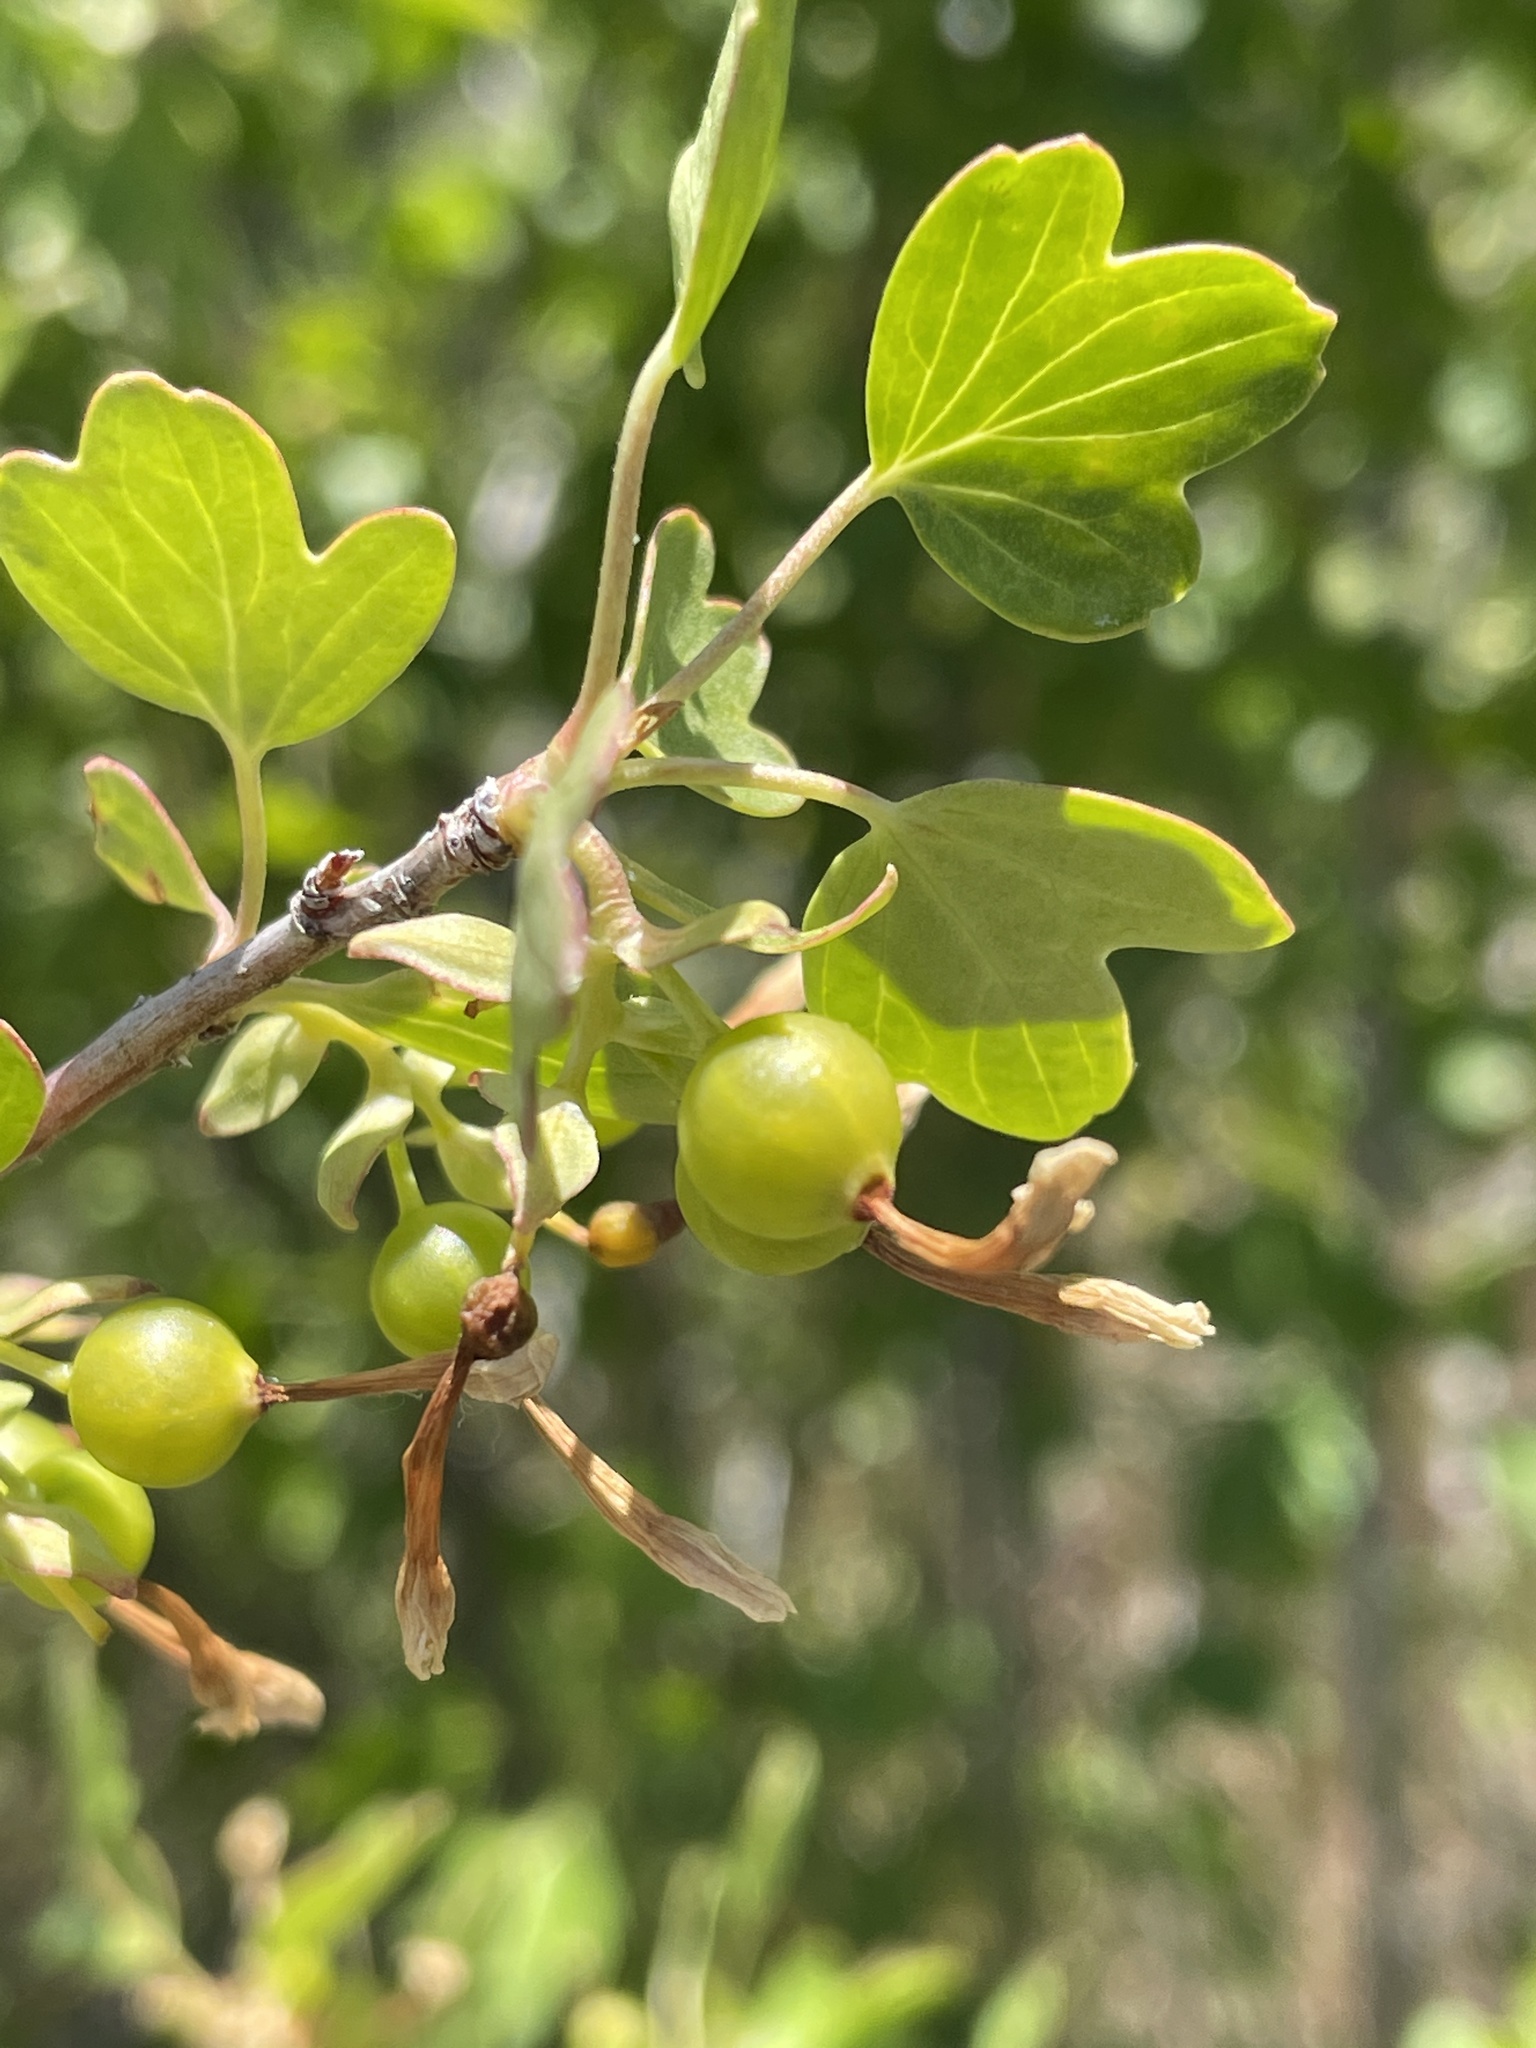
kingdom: Plantae
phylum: Tracheophyta
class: Magnoliopsida
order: Saxifragales
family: Grossulariaceae
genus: Ribes
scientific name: Ribes aureum
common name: Golden currant
